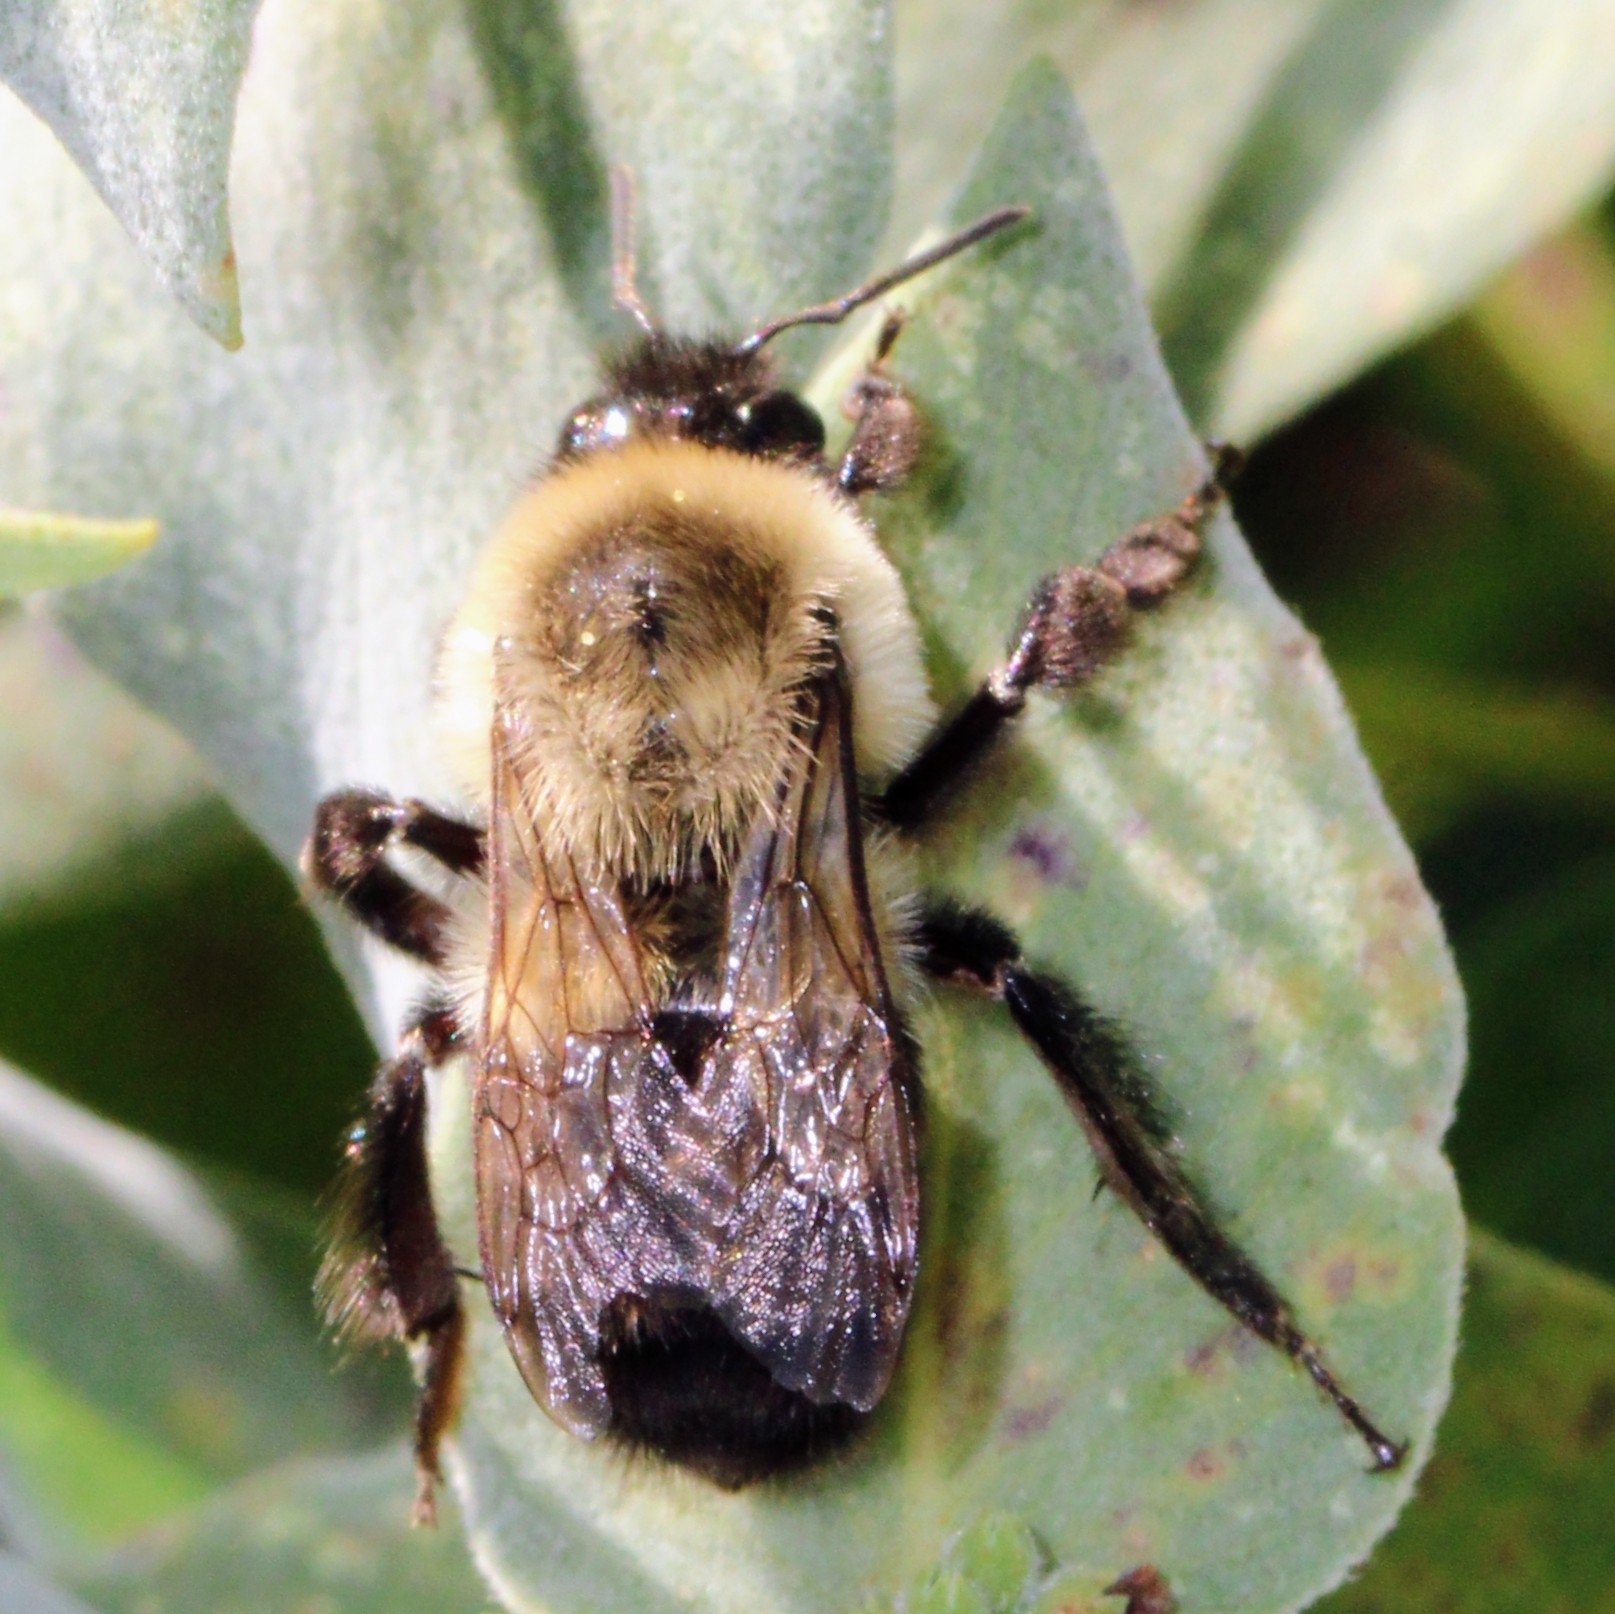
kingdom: Animalia
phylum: Arthropoda
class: Insecta
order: Hymenoptera
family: Apidae
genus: Bombus
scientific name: Bombus impatiens
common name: Common eastern bumble bee
